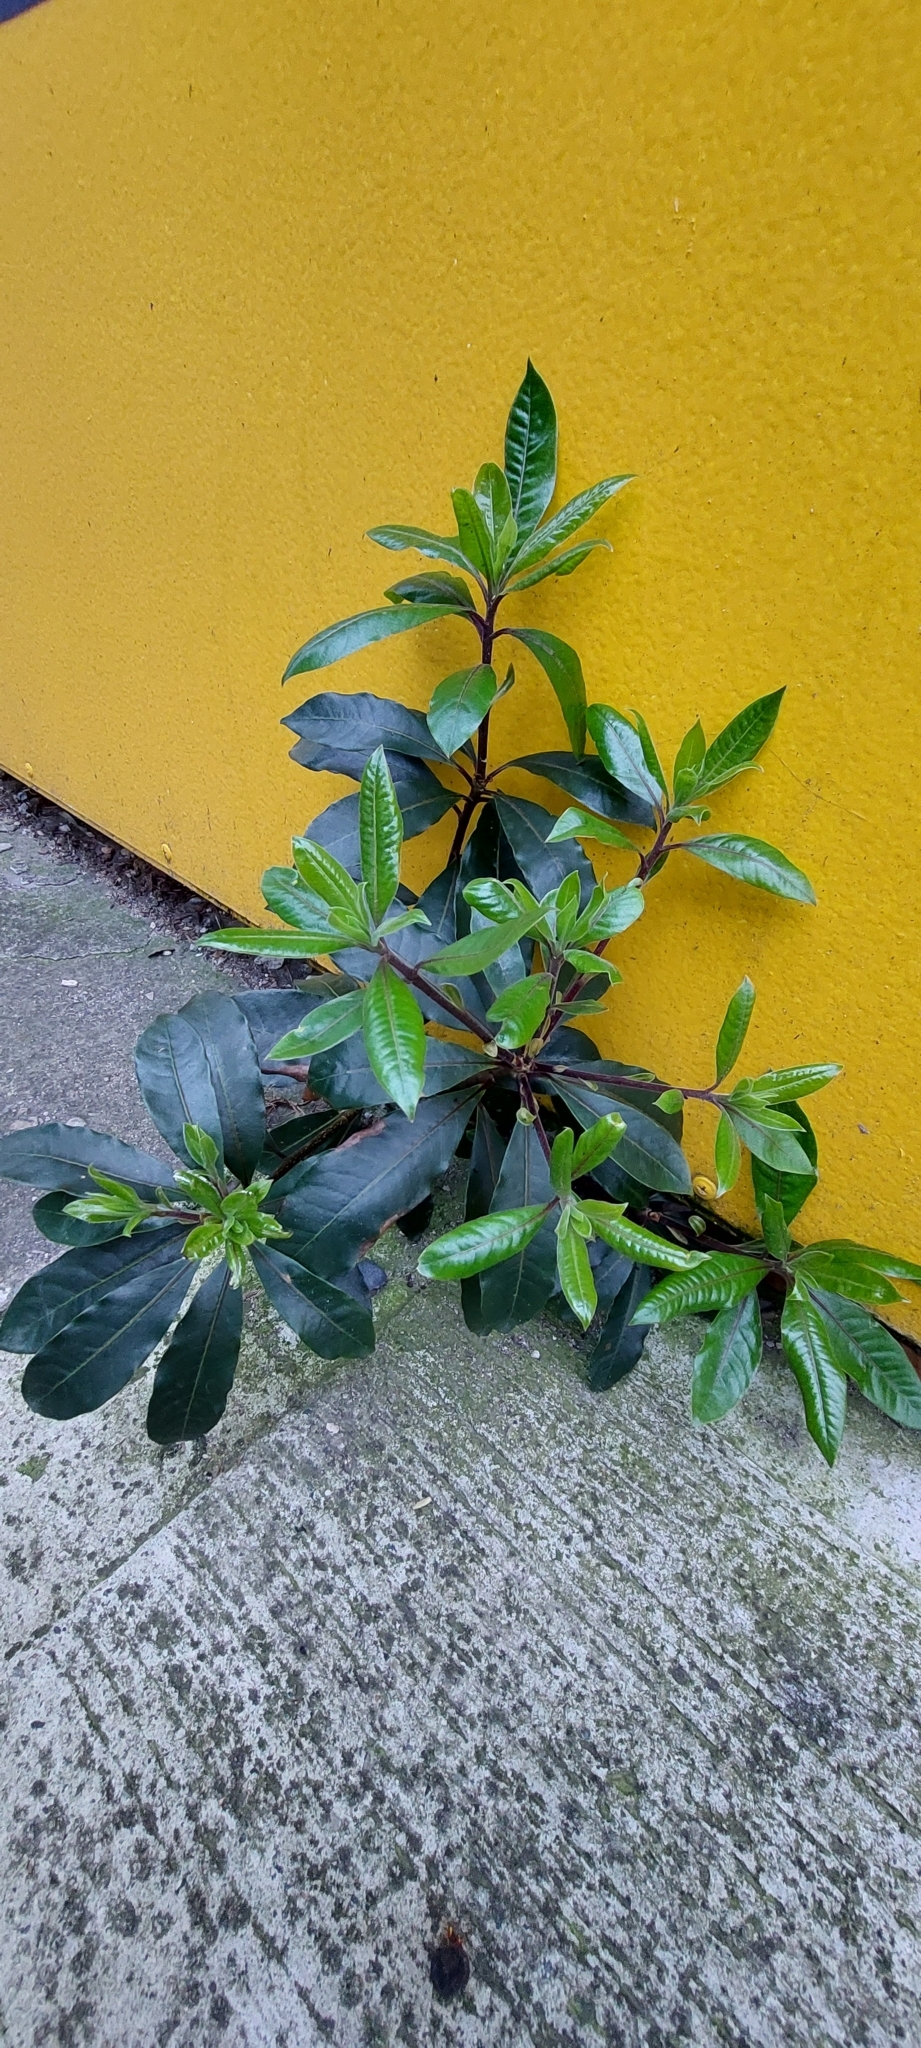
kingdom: Plantae
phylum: Tracheophyta
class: Magnoliopsida
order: Apiales
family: Pittosporaceae
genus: Pittosporum
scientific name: Pittosporum undulatum
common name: Australian cheesewood
